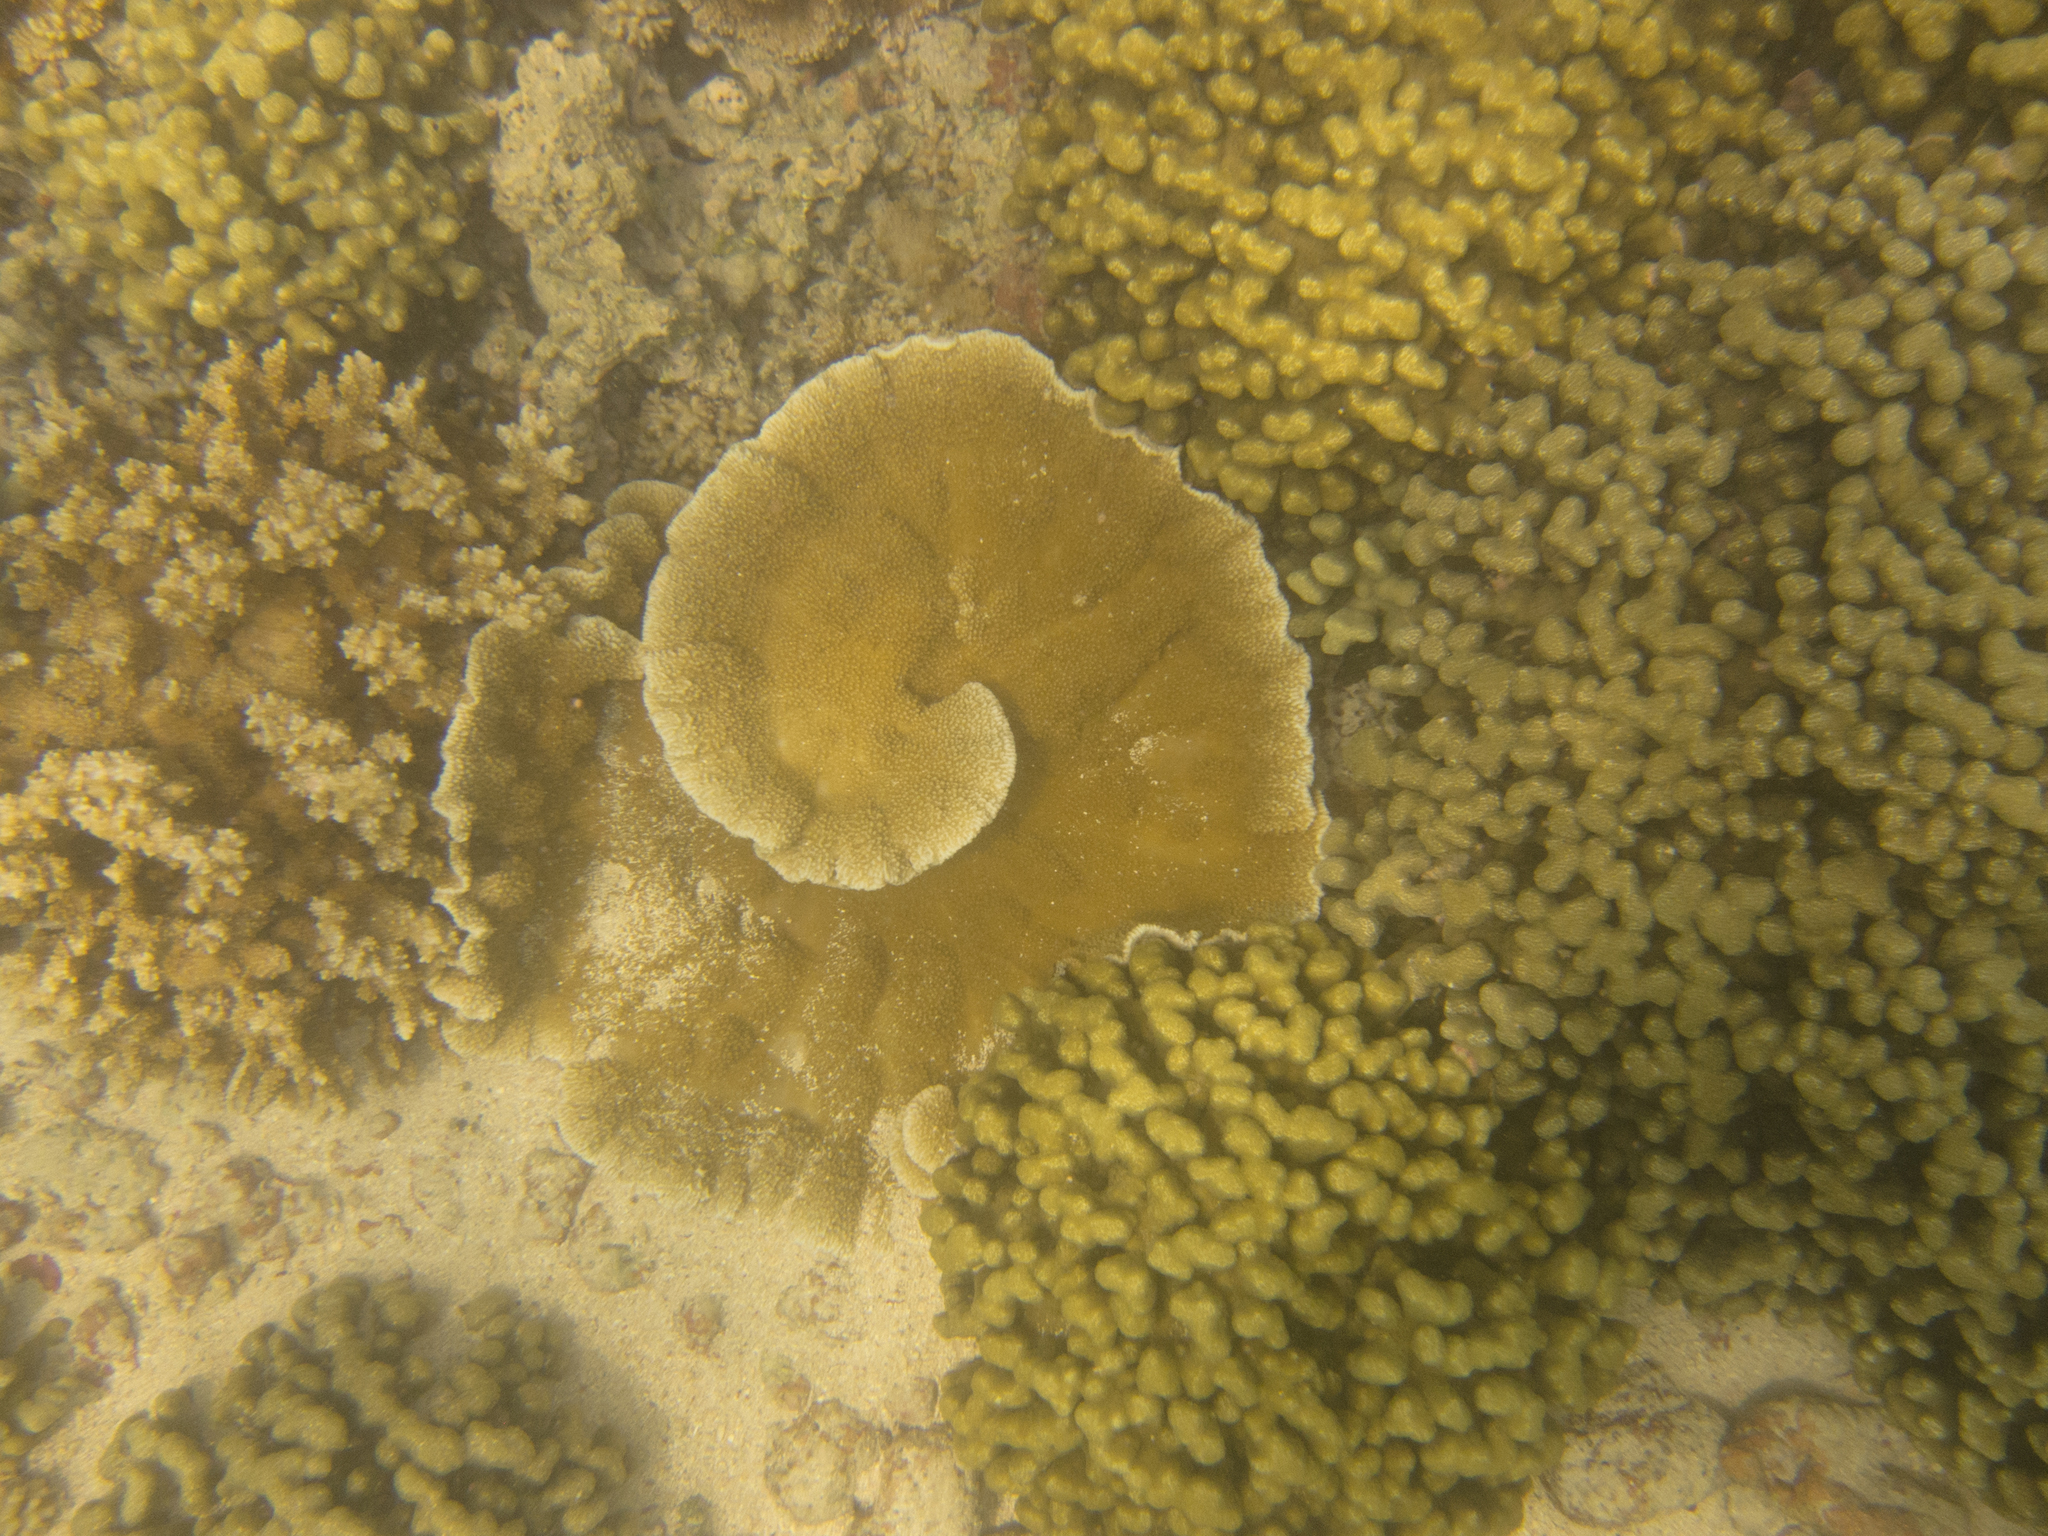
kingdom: Animalia
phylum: Cnidaria
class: Anthozoa
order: Scleractinia
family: Acroporidae
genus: Montipora
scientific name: Montipora capitata
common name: Pore coral
